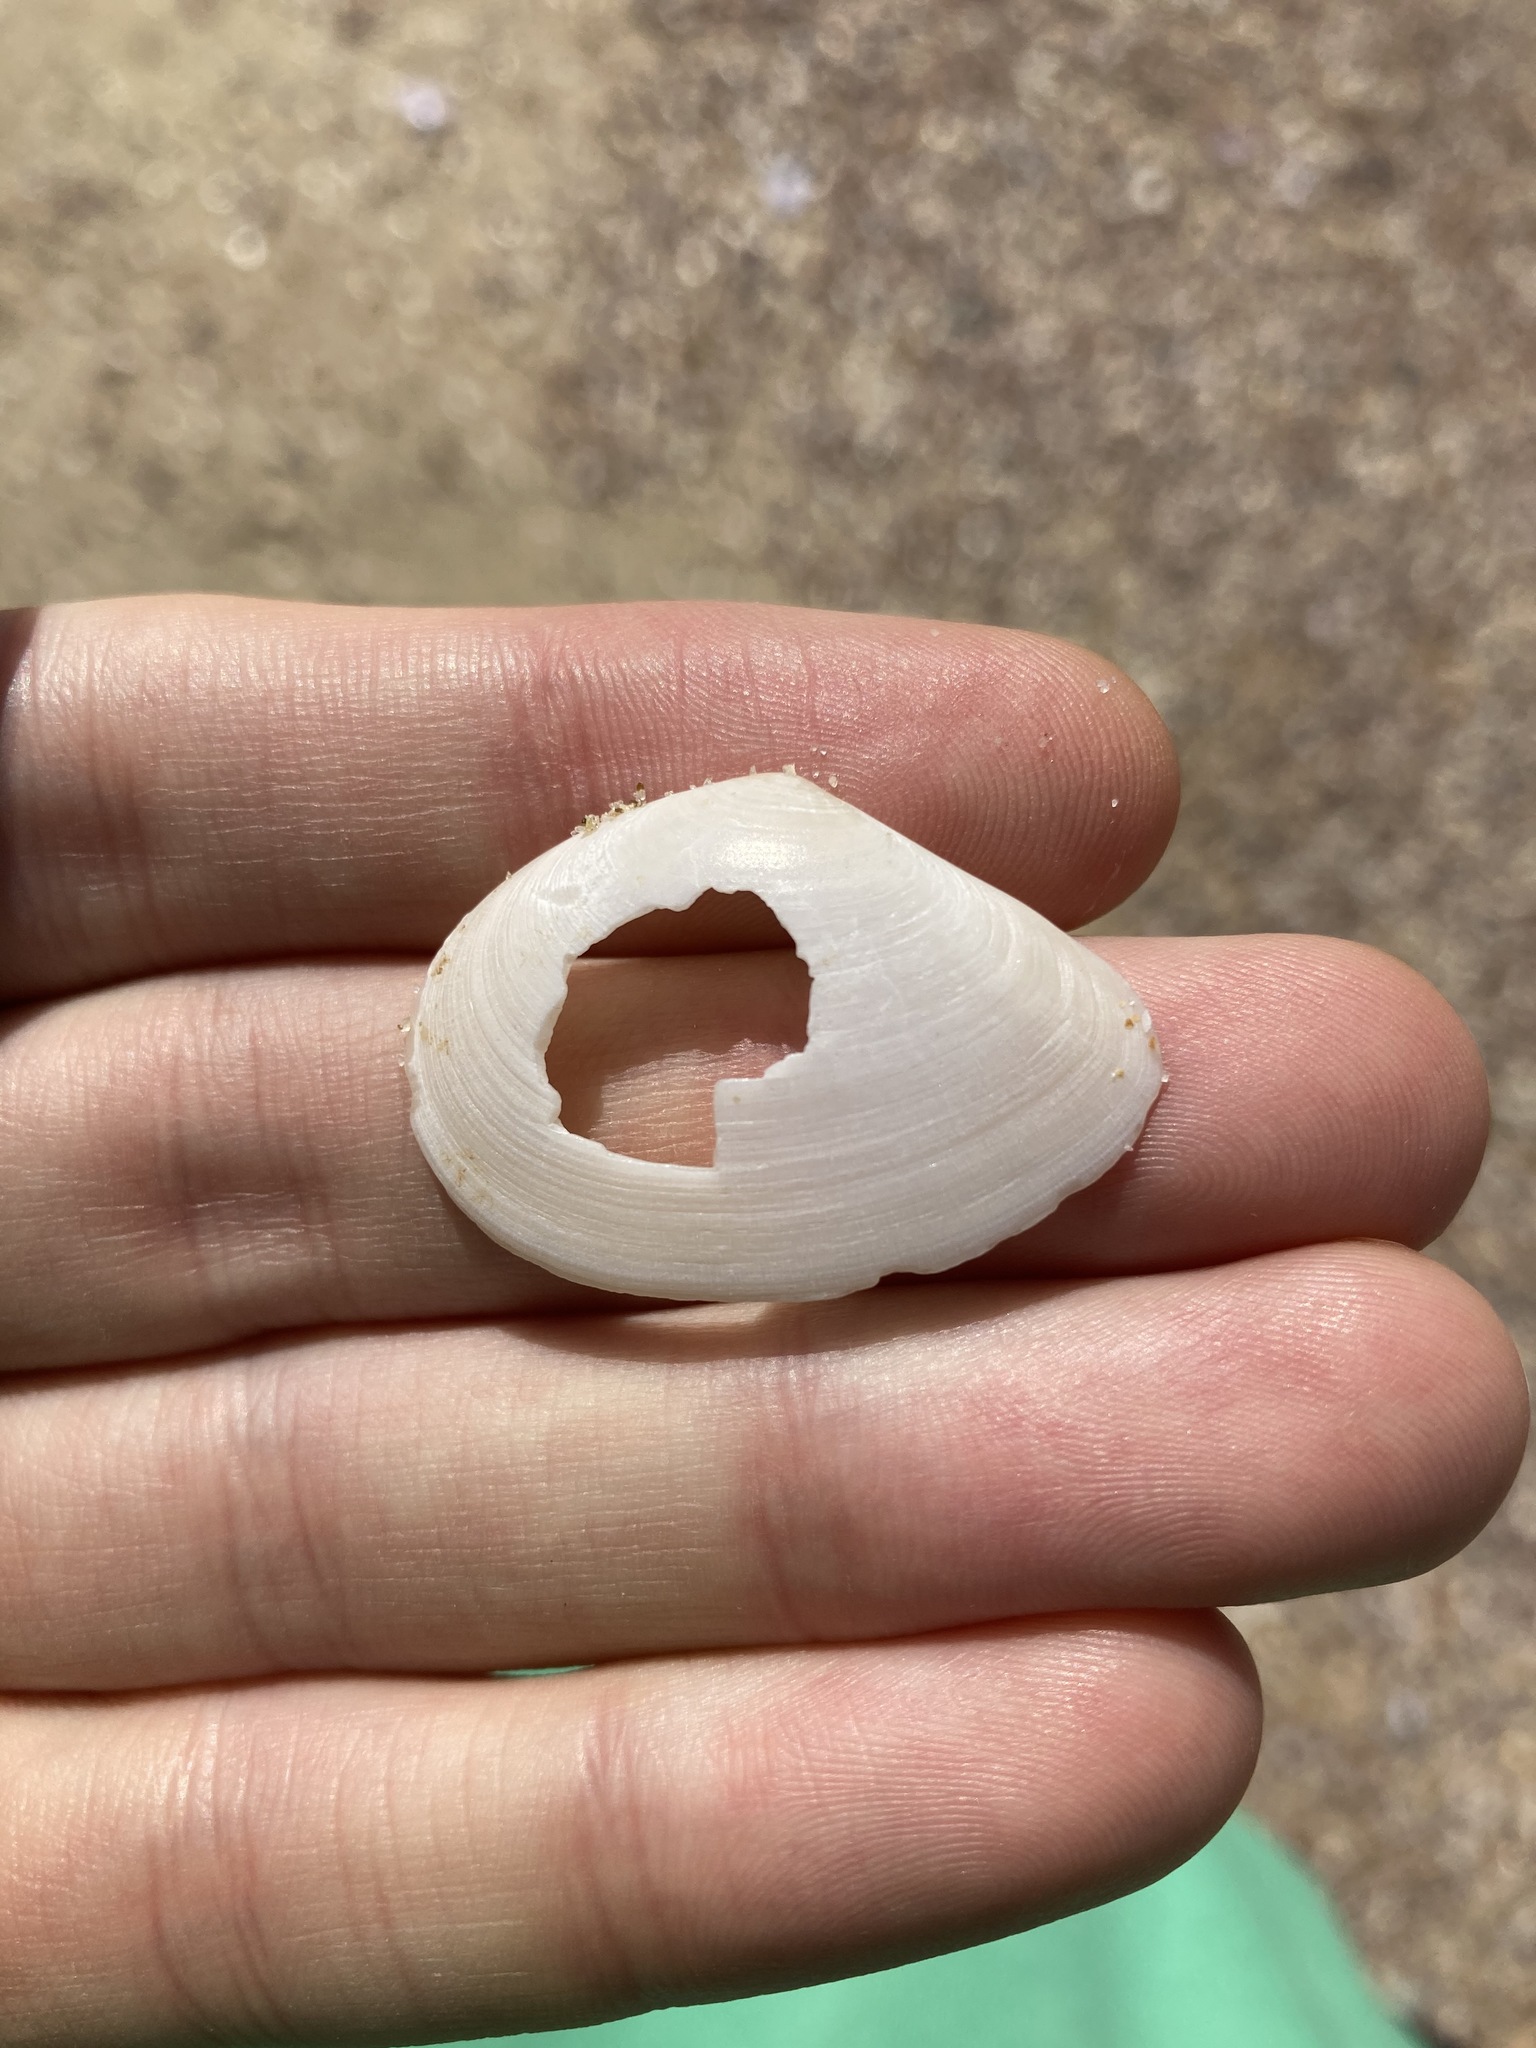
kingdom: Animalia
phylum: Mollusca
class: Bivalvia
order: Cardiida
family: Tellinidae
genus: Macomona
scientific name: Macomona deltoidalis
